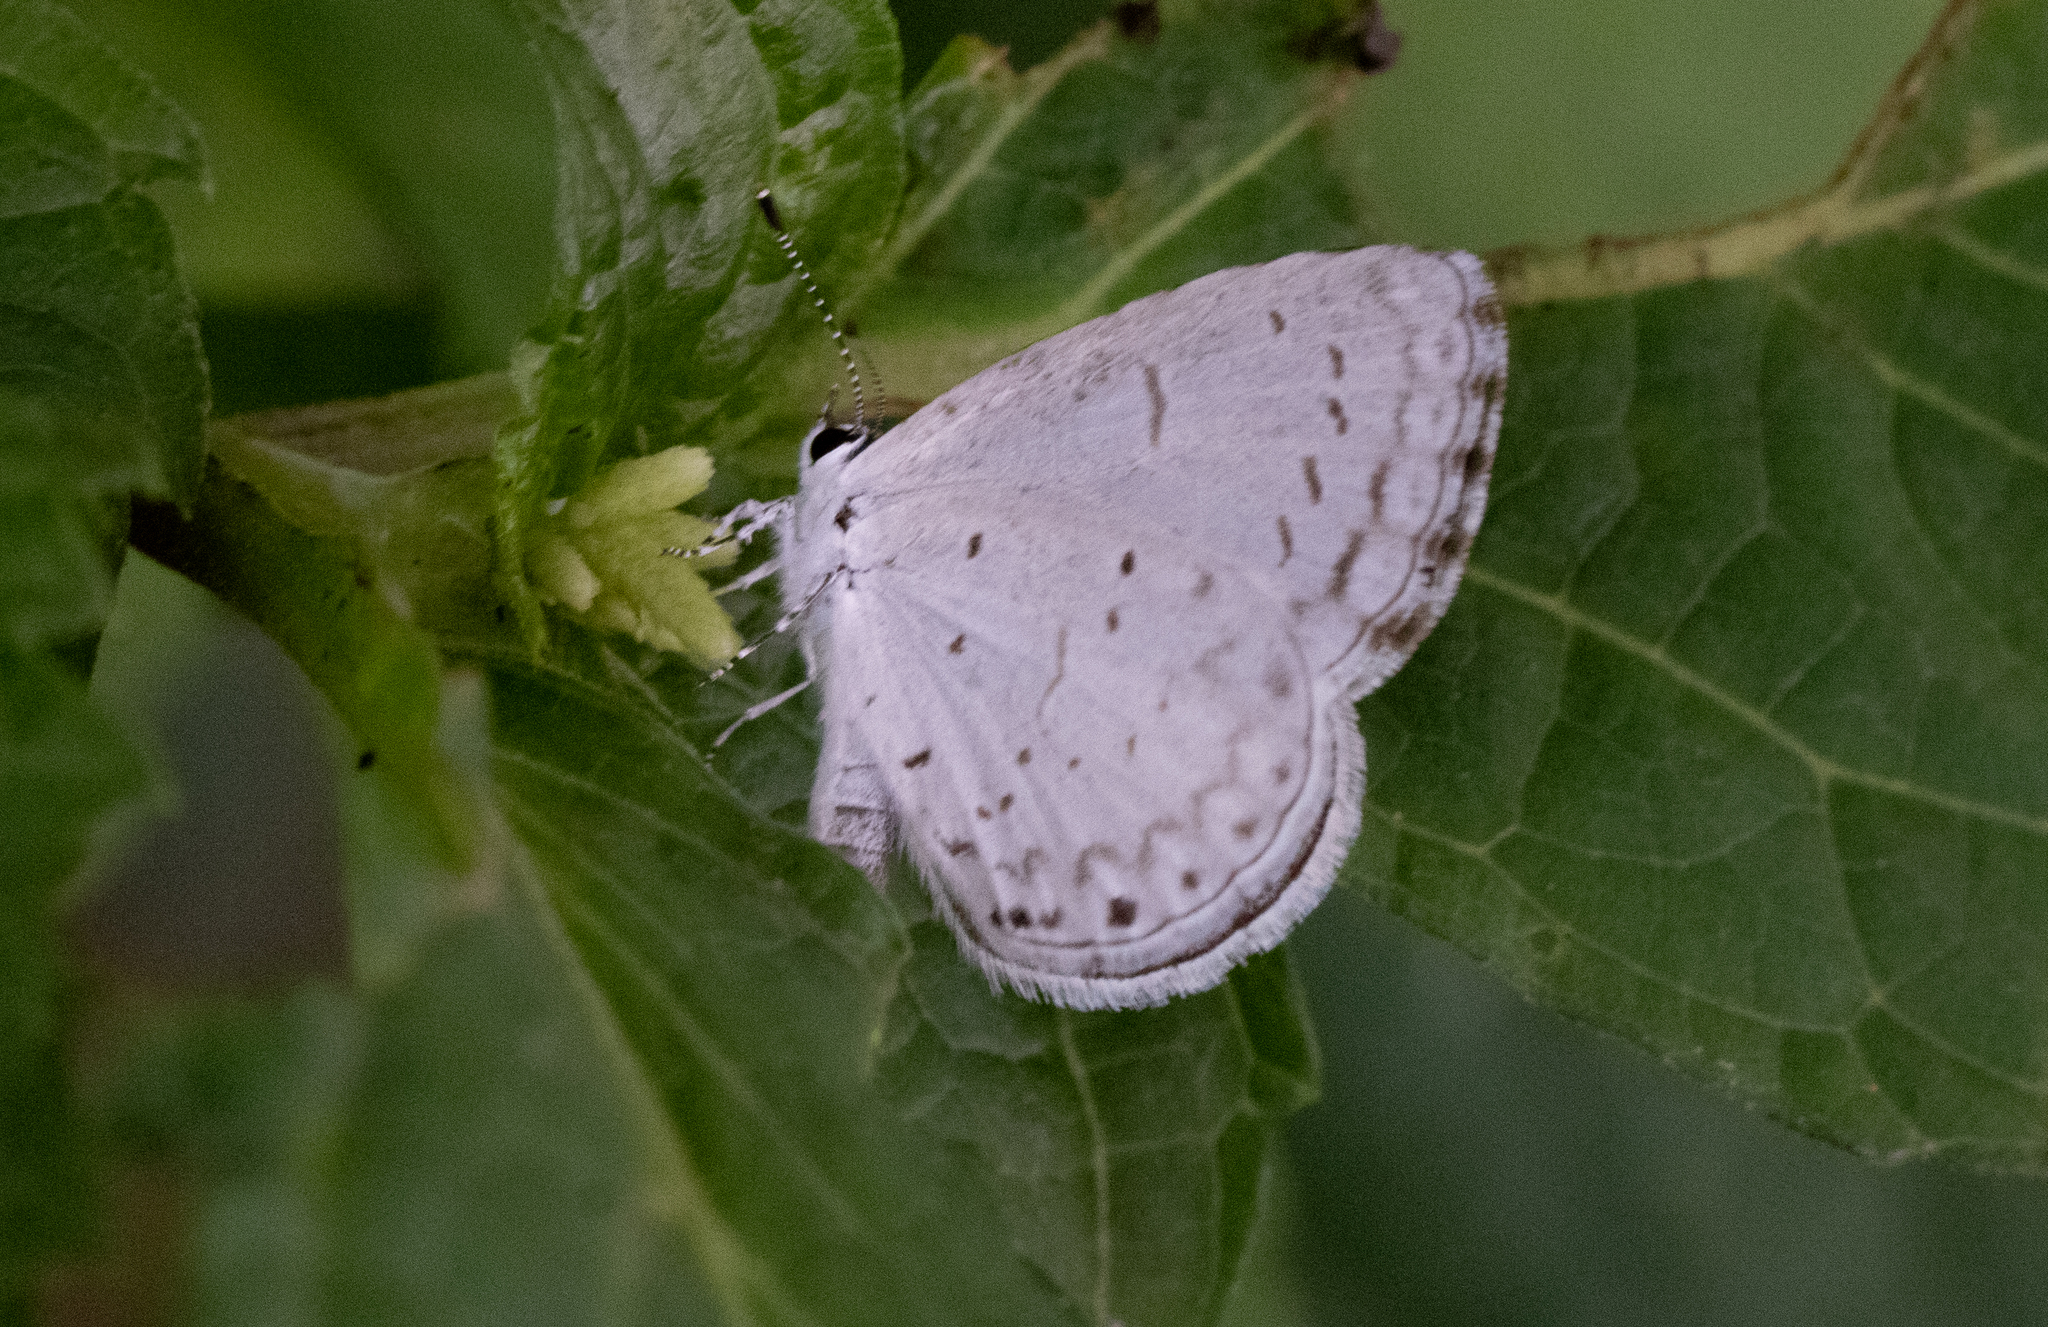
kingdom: Animalia
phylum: Arthropoda
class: Insecta
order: Lepidoptera
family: Lycaenidae
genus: Cyaniris
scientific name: Cyaniris neglecta
